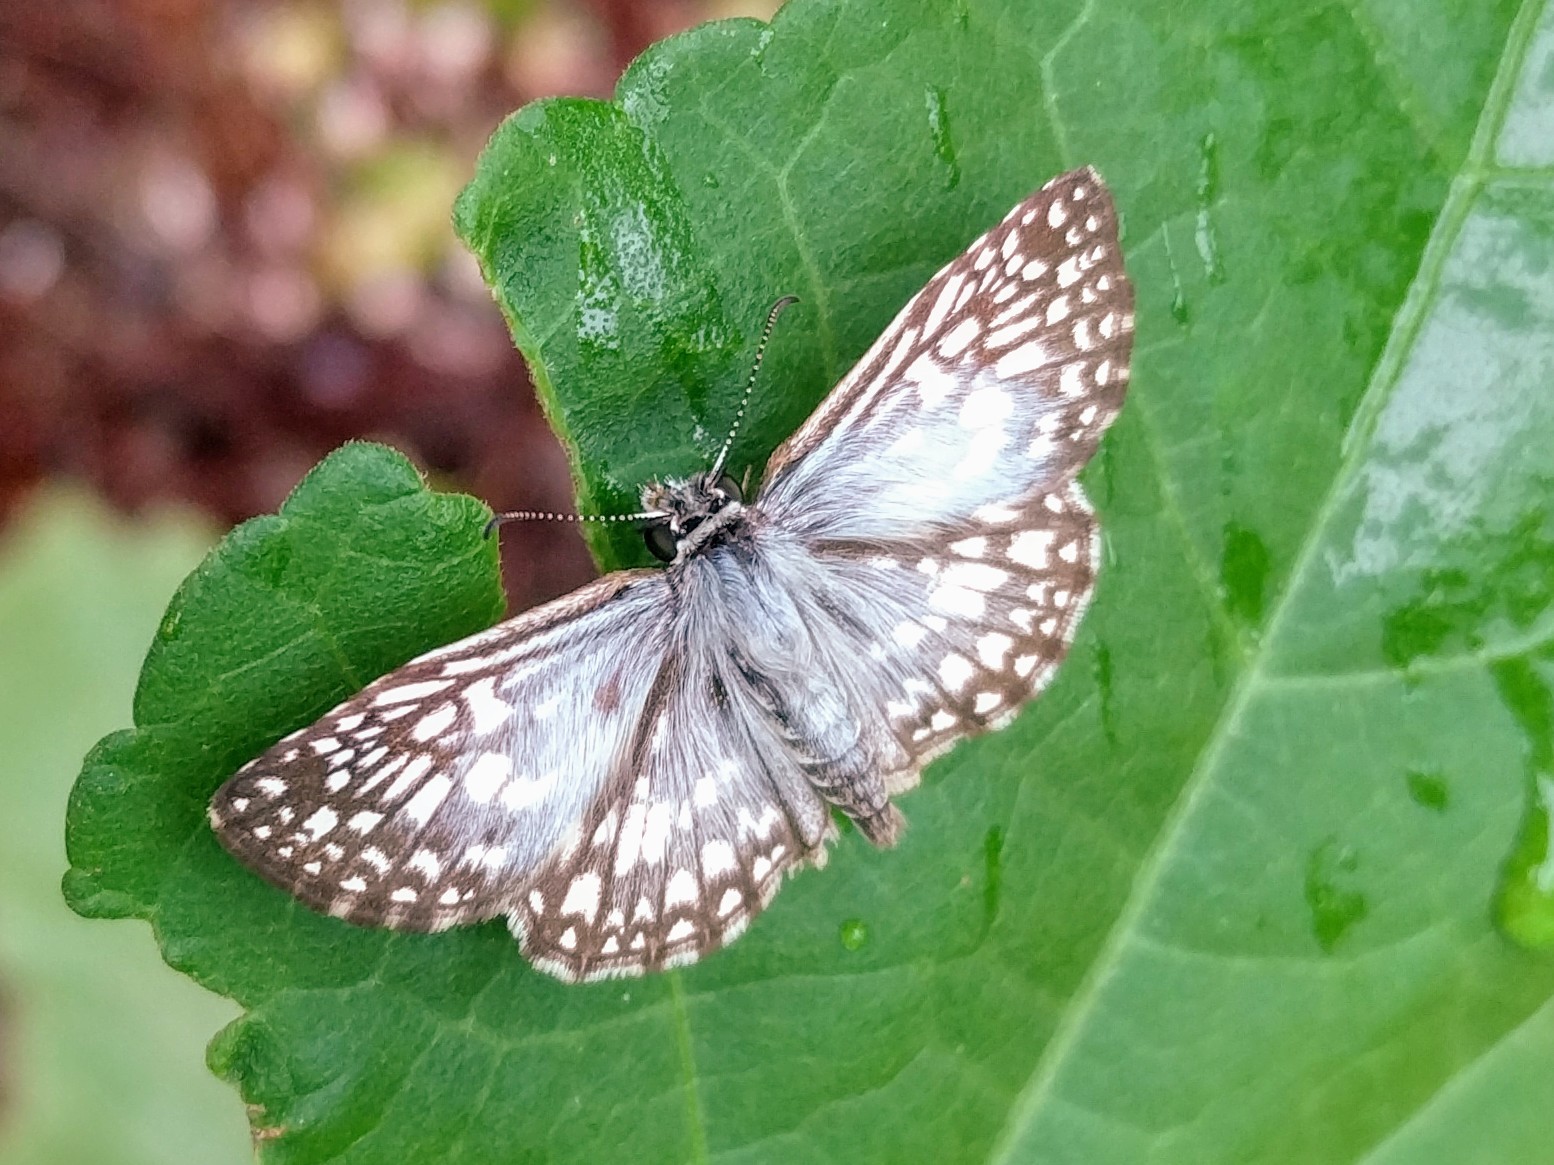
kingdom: Animalia
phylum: Arthropoda
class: Insecta
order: Lepidoptera
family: Hesperiidae
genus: Pyrgus
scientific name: Pyrgus oileus
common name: Tropical checkered-skipper
